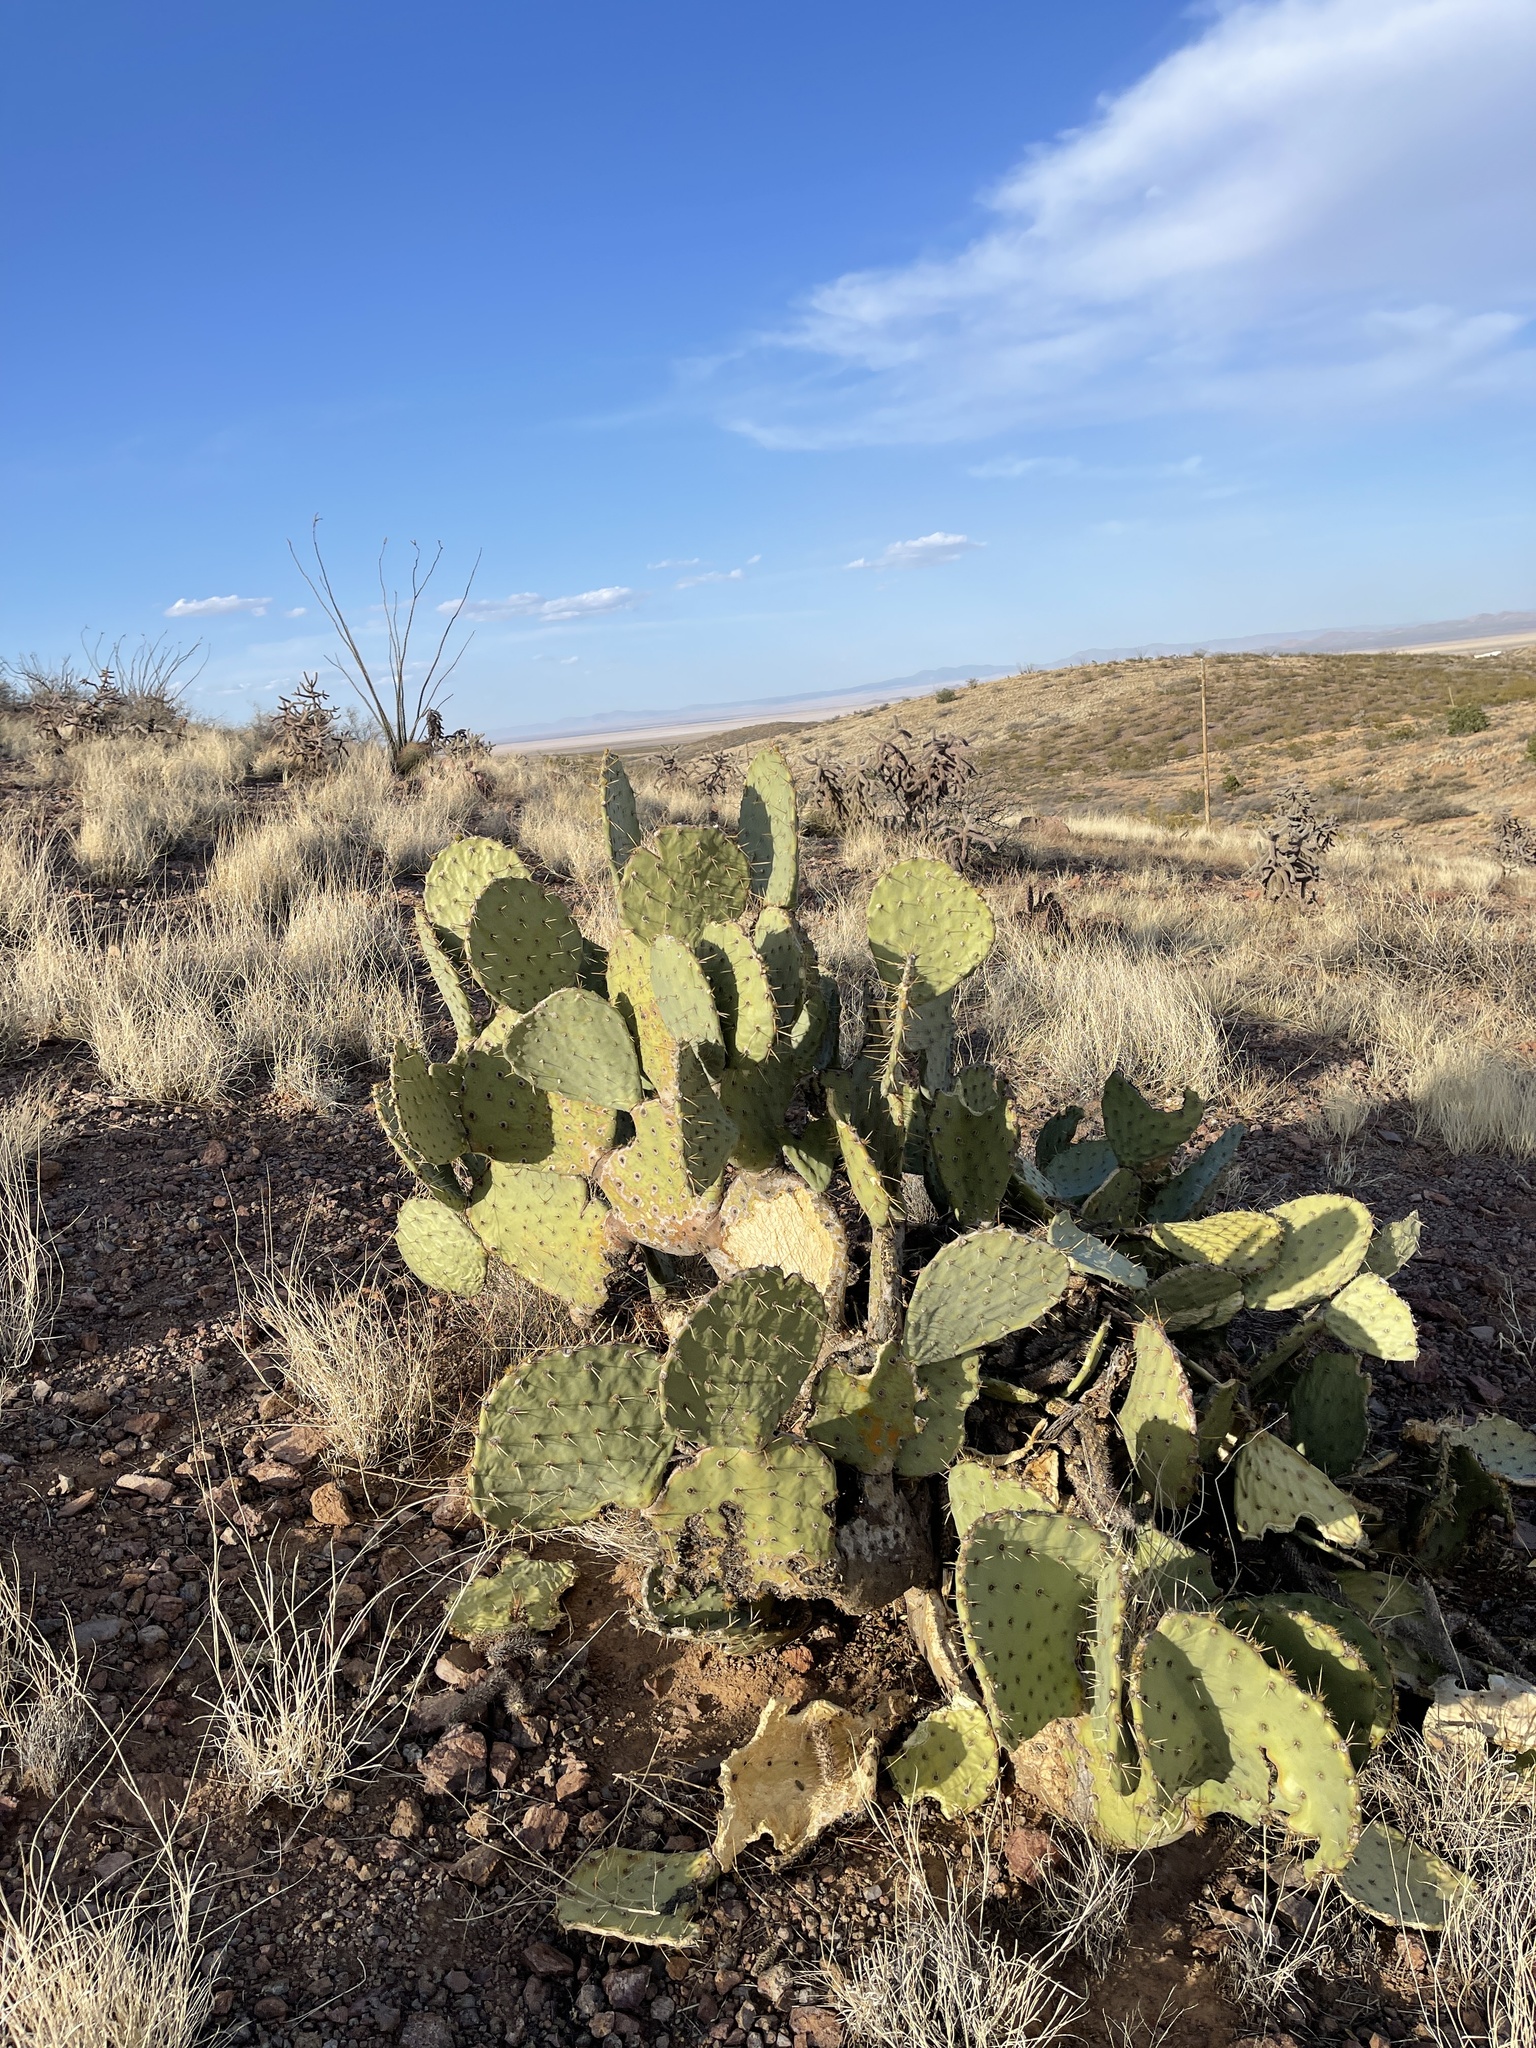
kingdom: Plantae
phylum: Tracheophyta
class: Magnoliopsida
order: Caryophyllales
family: Cactaceae
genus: Opuntia
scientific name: Opuntia engelmannii
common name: Cactus-apple
